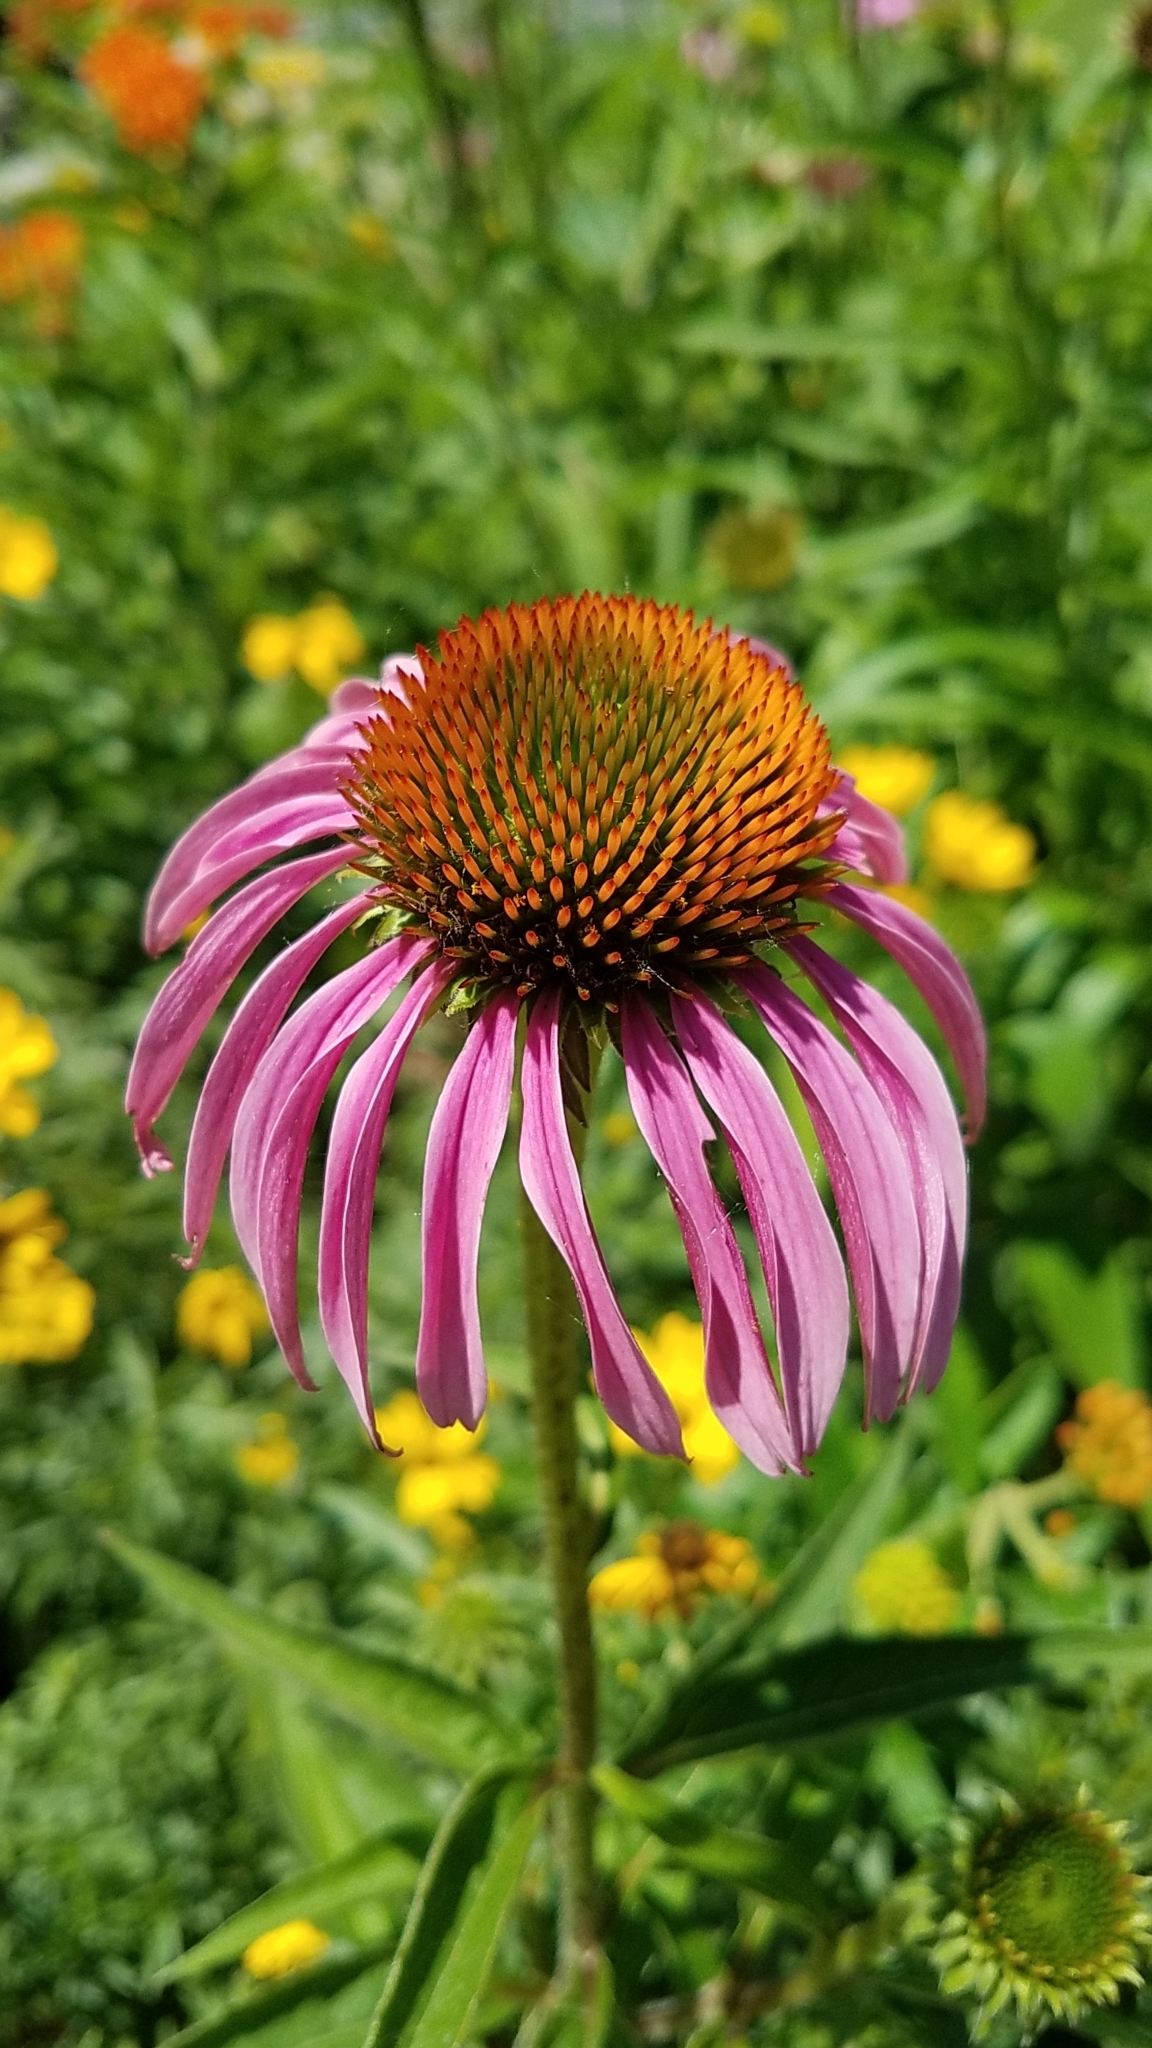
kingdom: Plantae
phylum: Tracheophyta
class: Magnoliopsida
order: Asterales
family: Asteraceae
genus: Echinacea
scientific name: Echinacea purpurea
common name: Broad-leaved purple coneflower
